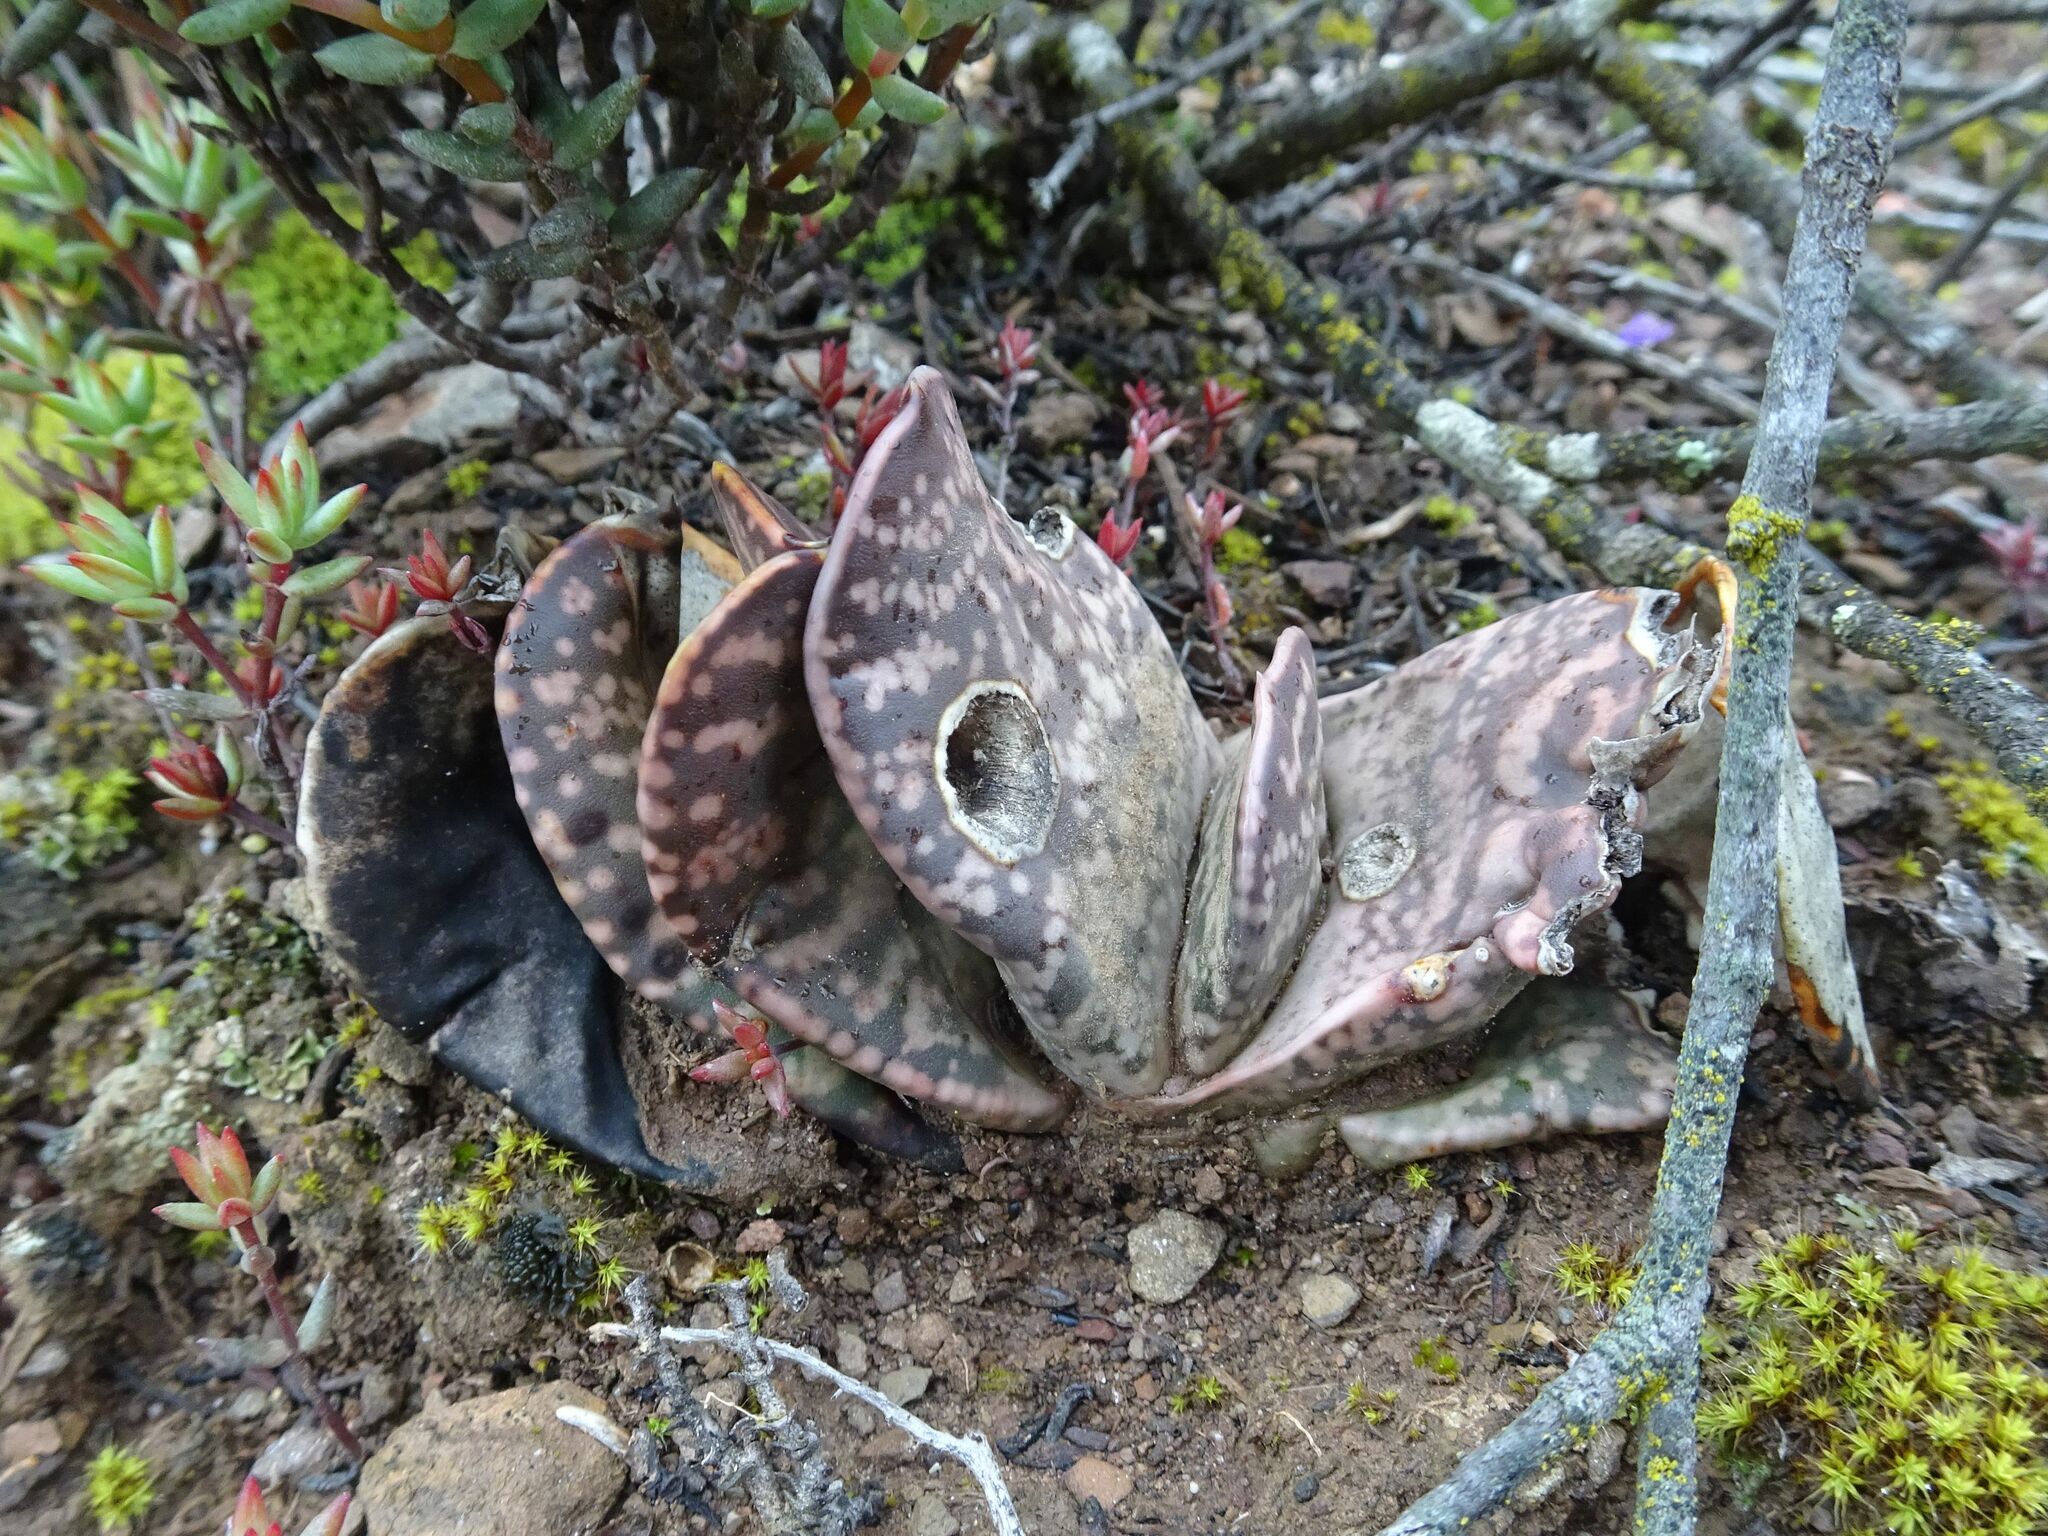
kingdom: Plantae
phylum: Tracheophyta
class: Liliopsida
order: Asparagales
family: Asphodelaceae
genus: Gasteria
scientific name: Gasteria brachyphylla
